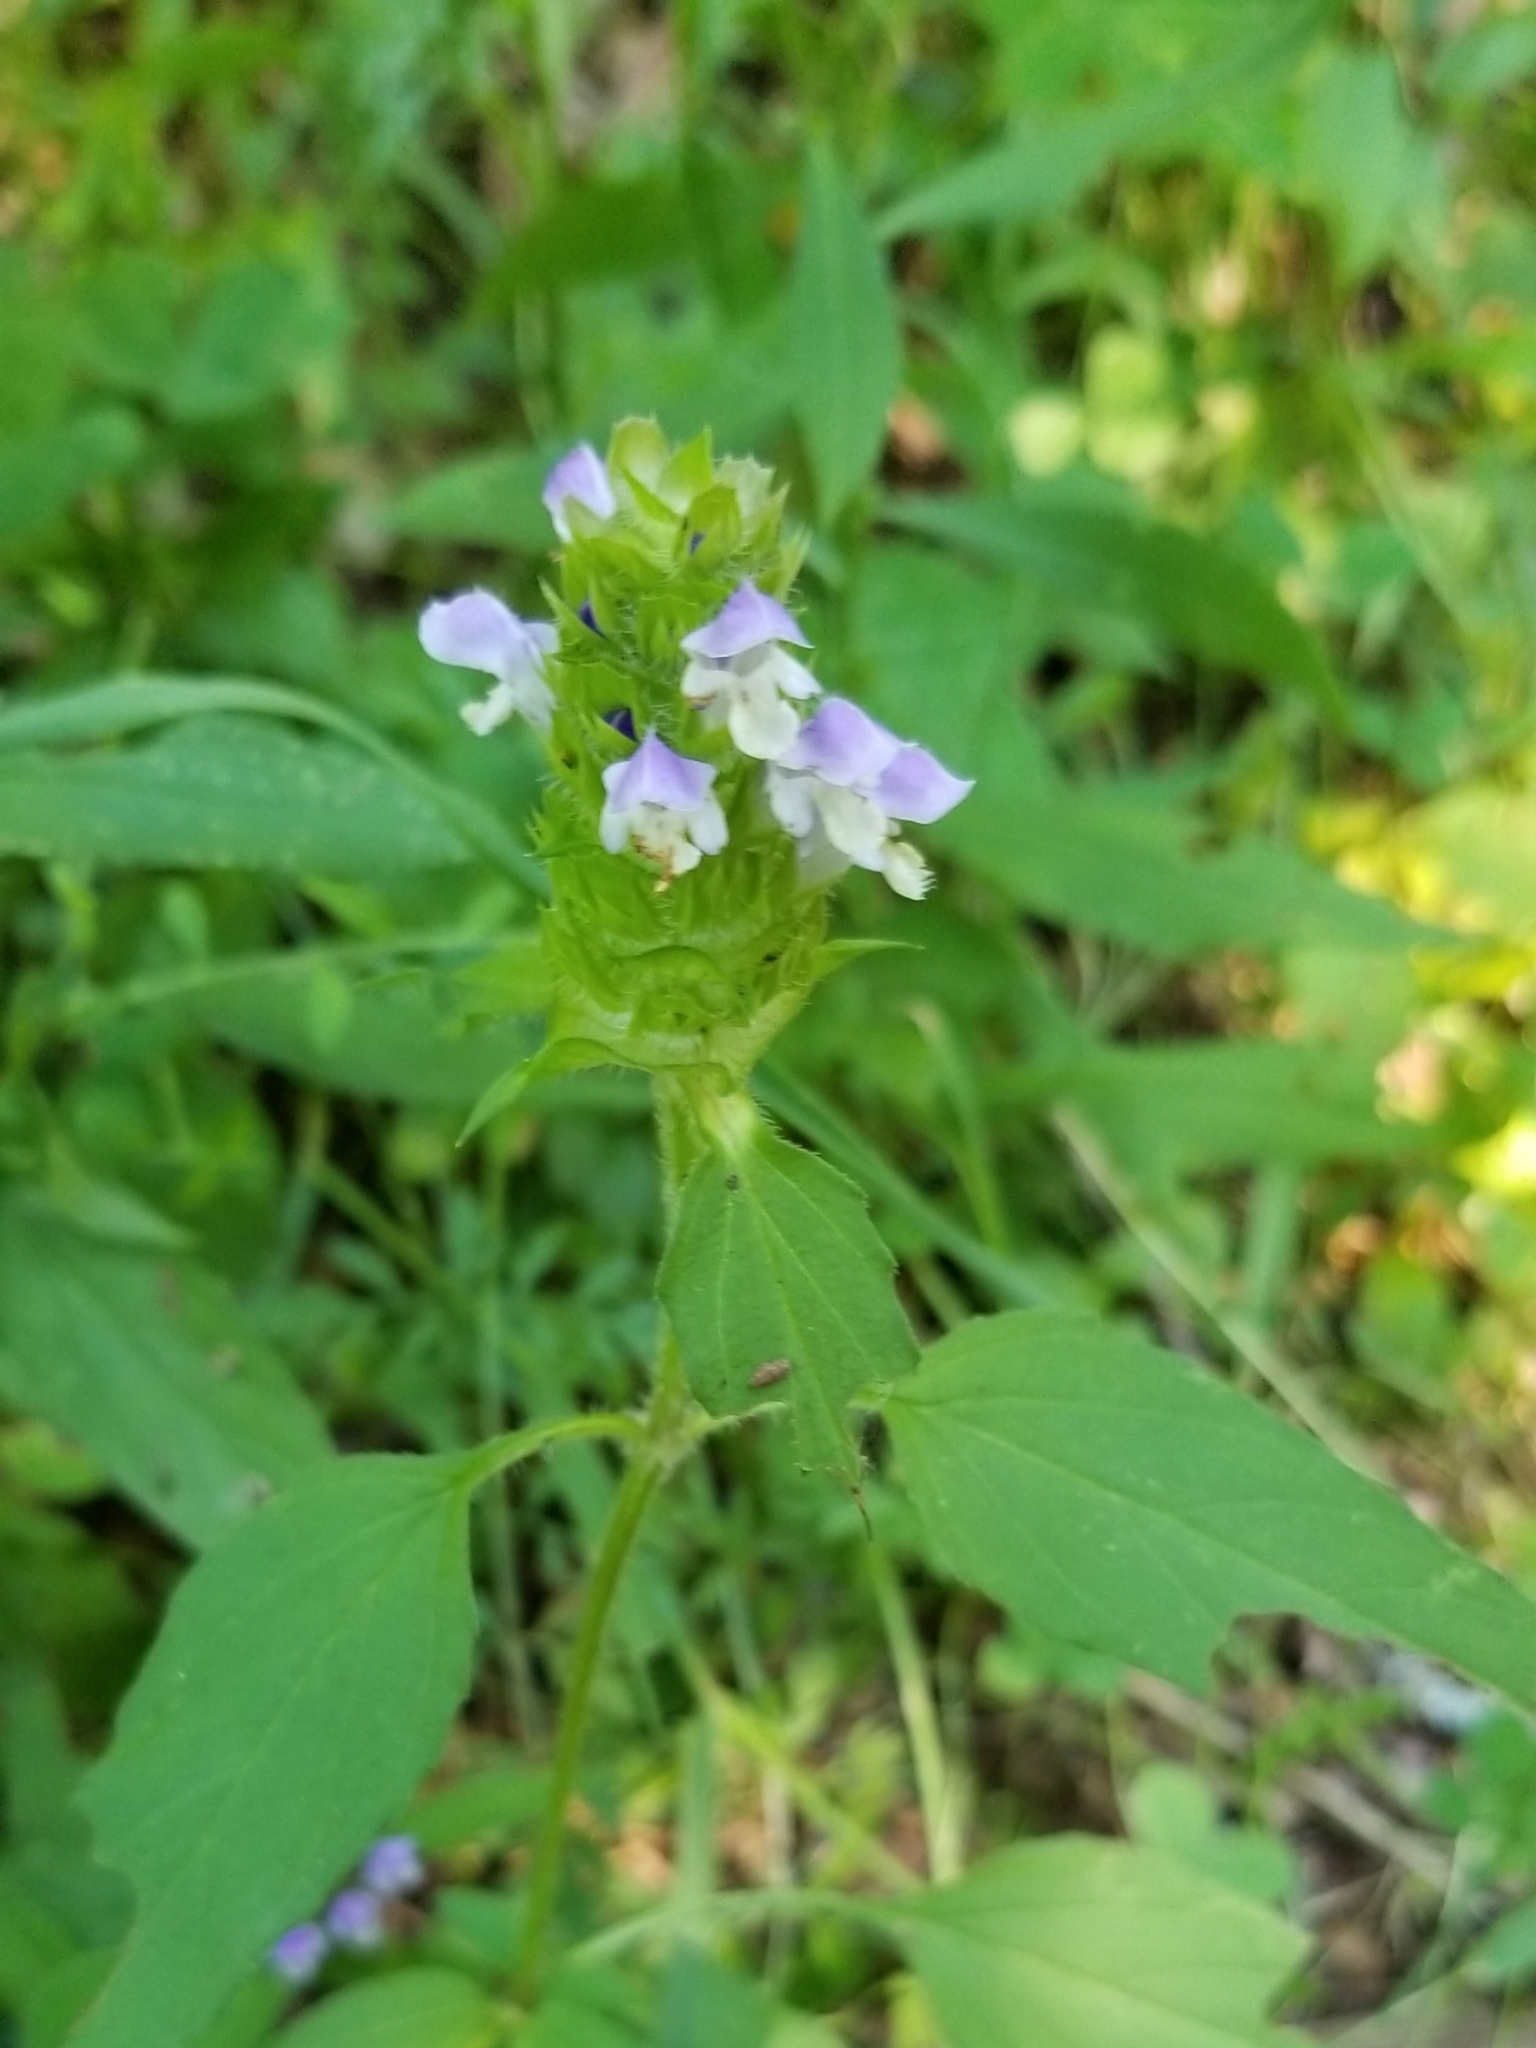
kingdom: Plantae
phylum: Tracheophyta
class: Magnoliopsida
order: Lamiales
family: Lamiaceae
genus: Prunella
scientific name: Prunella vulgaris
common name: Heal-all
